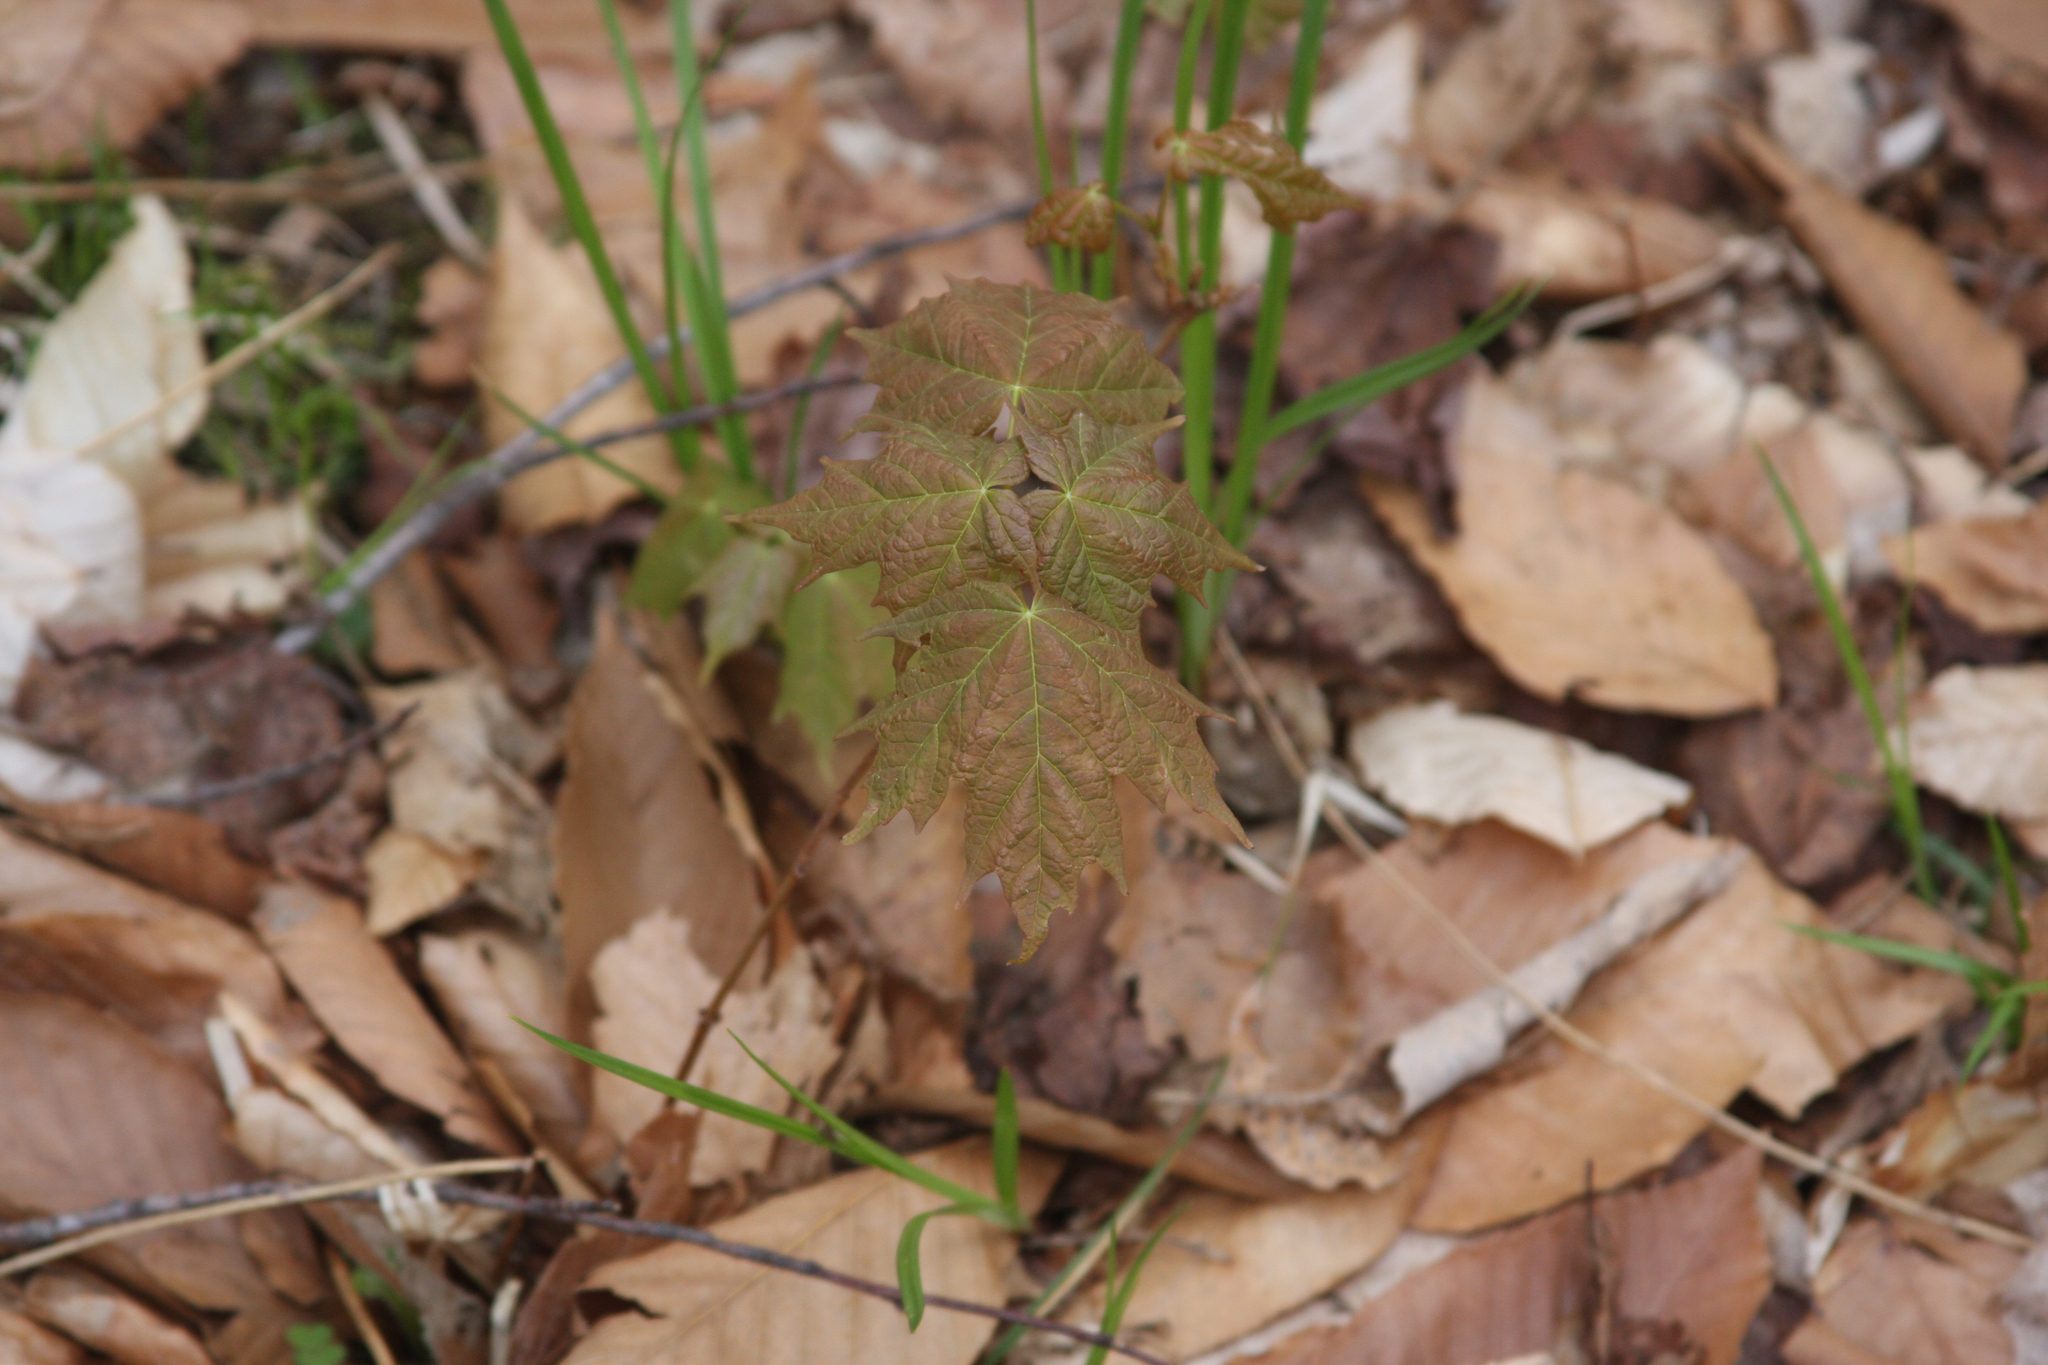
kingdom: Plantae
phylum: Tracheophyta
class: Magnoliopsida
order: Sapindales
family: Sapindaceae
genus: Acer
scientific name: Acer saccharum
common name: Sugar maple
